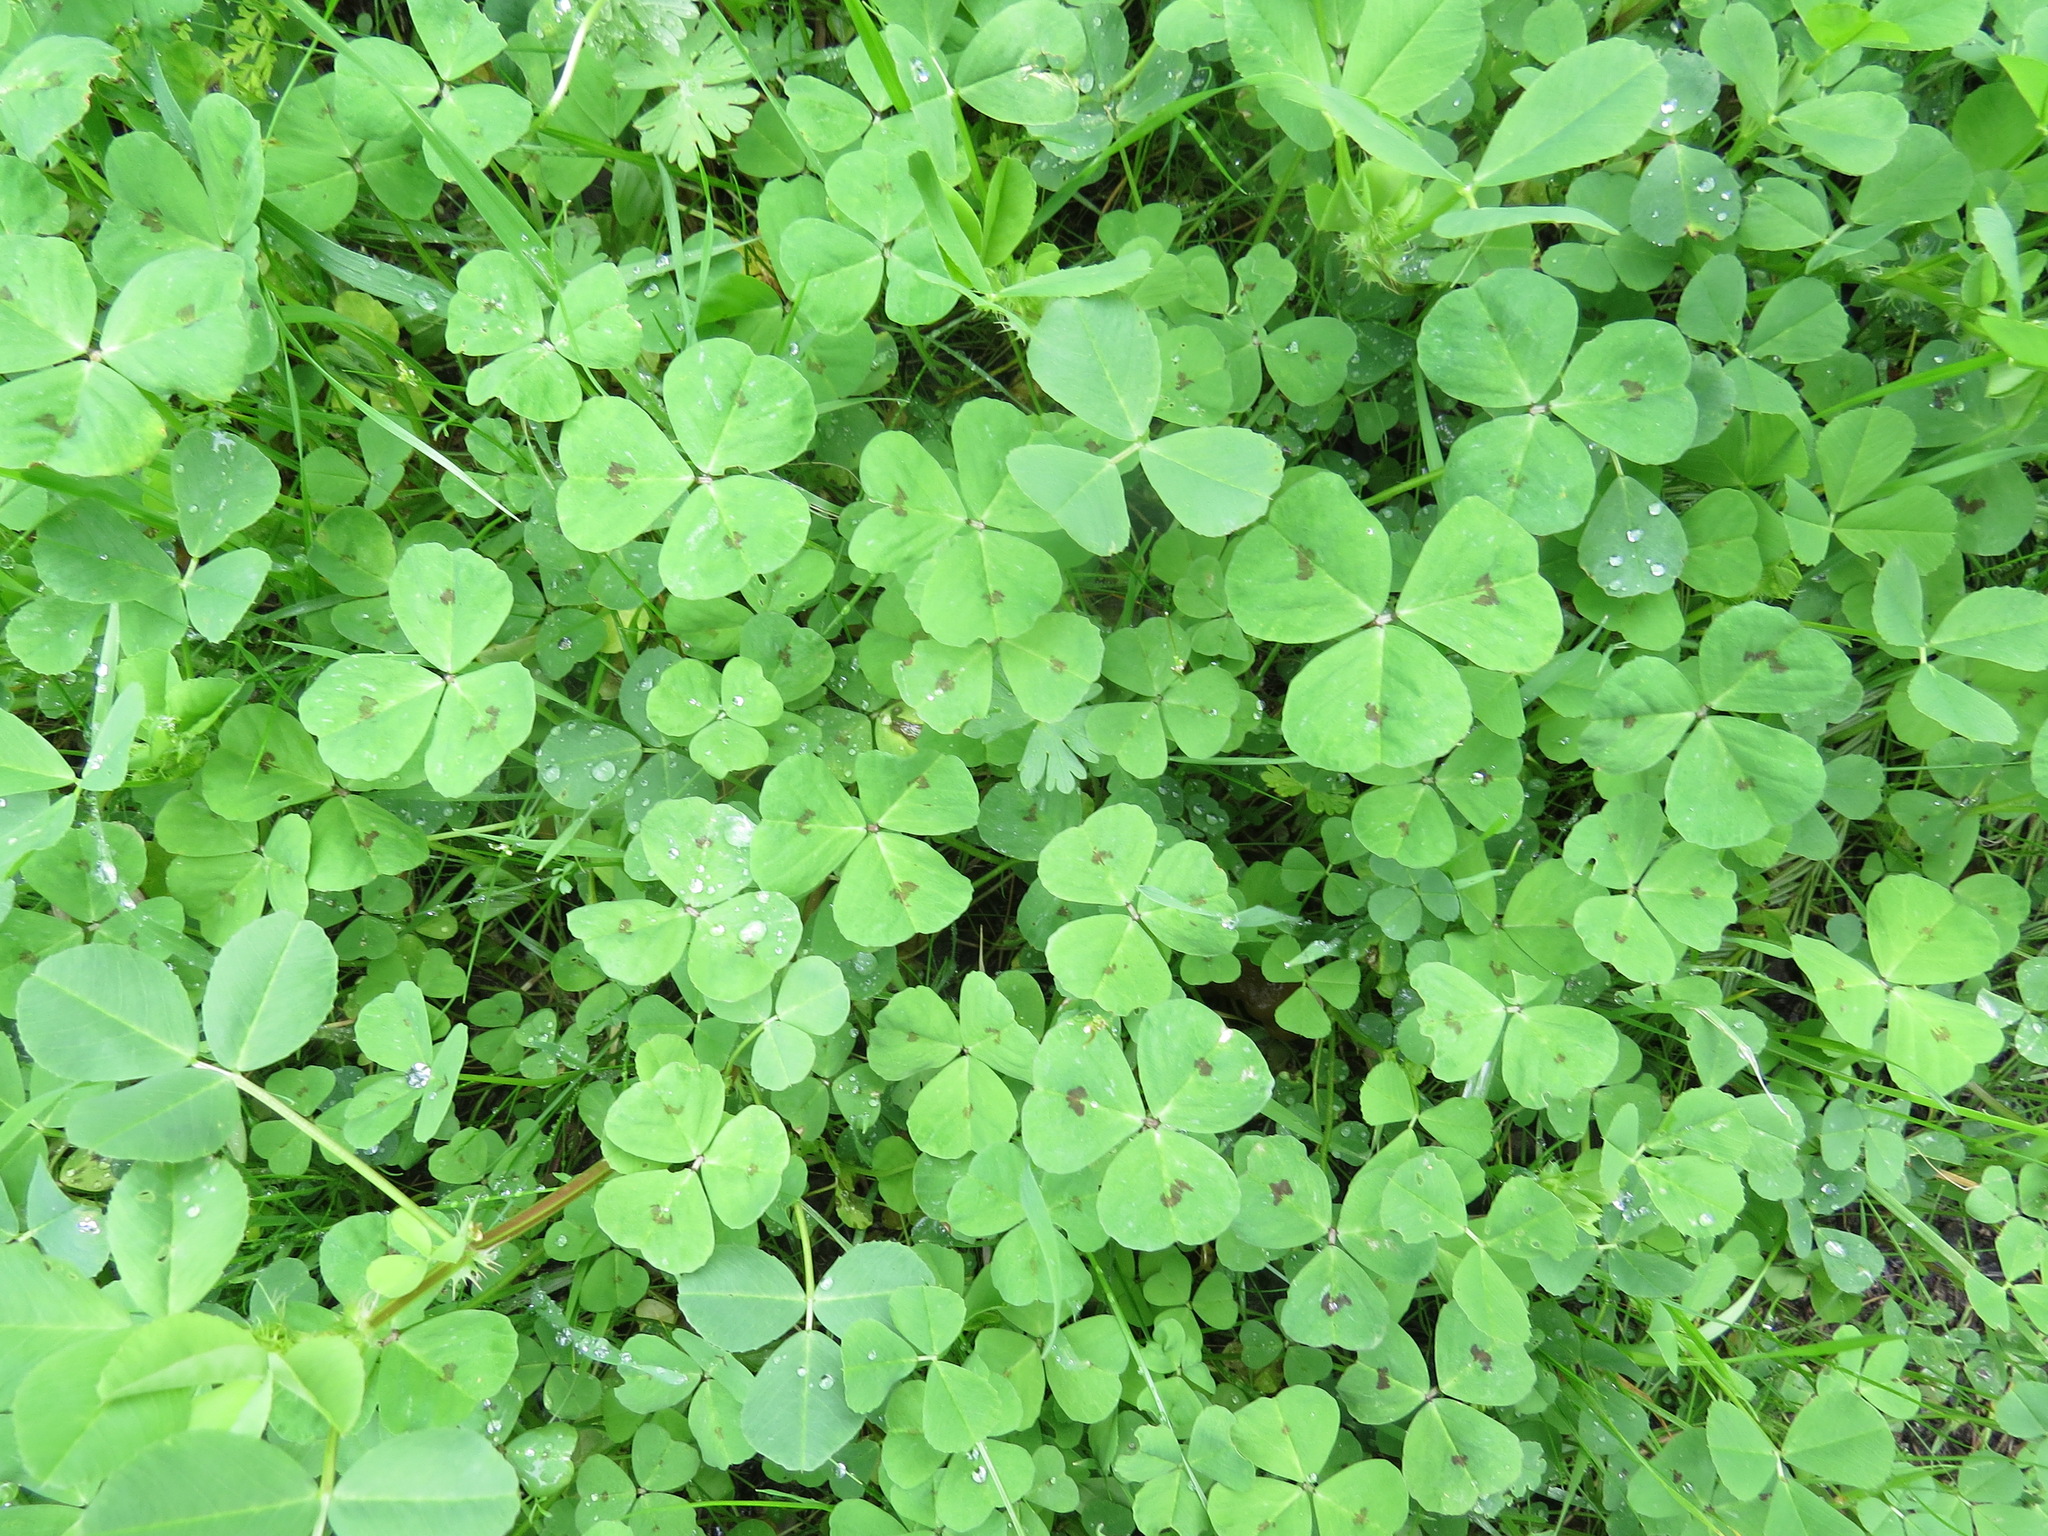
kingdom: Plantae
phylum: Tracheophyta
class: Magnoliopsida
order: Fabales
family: Fabaceae
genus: Medicago
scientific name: Medicago arabica
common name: Spotted medick
